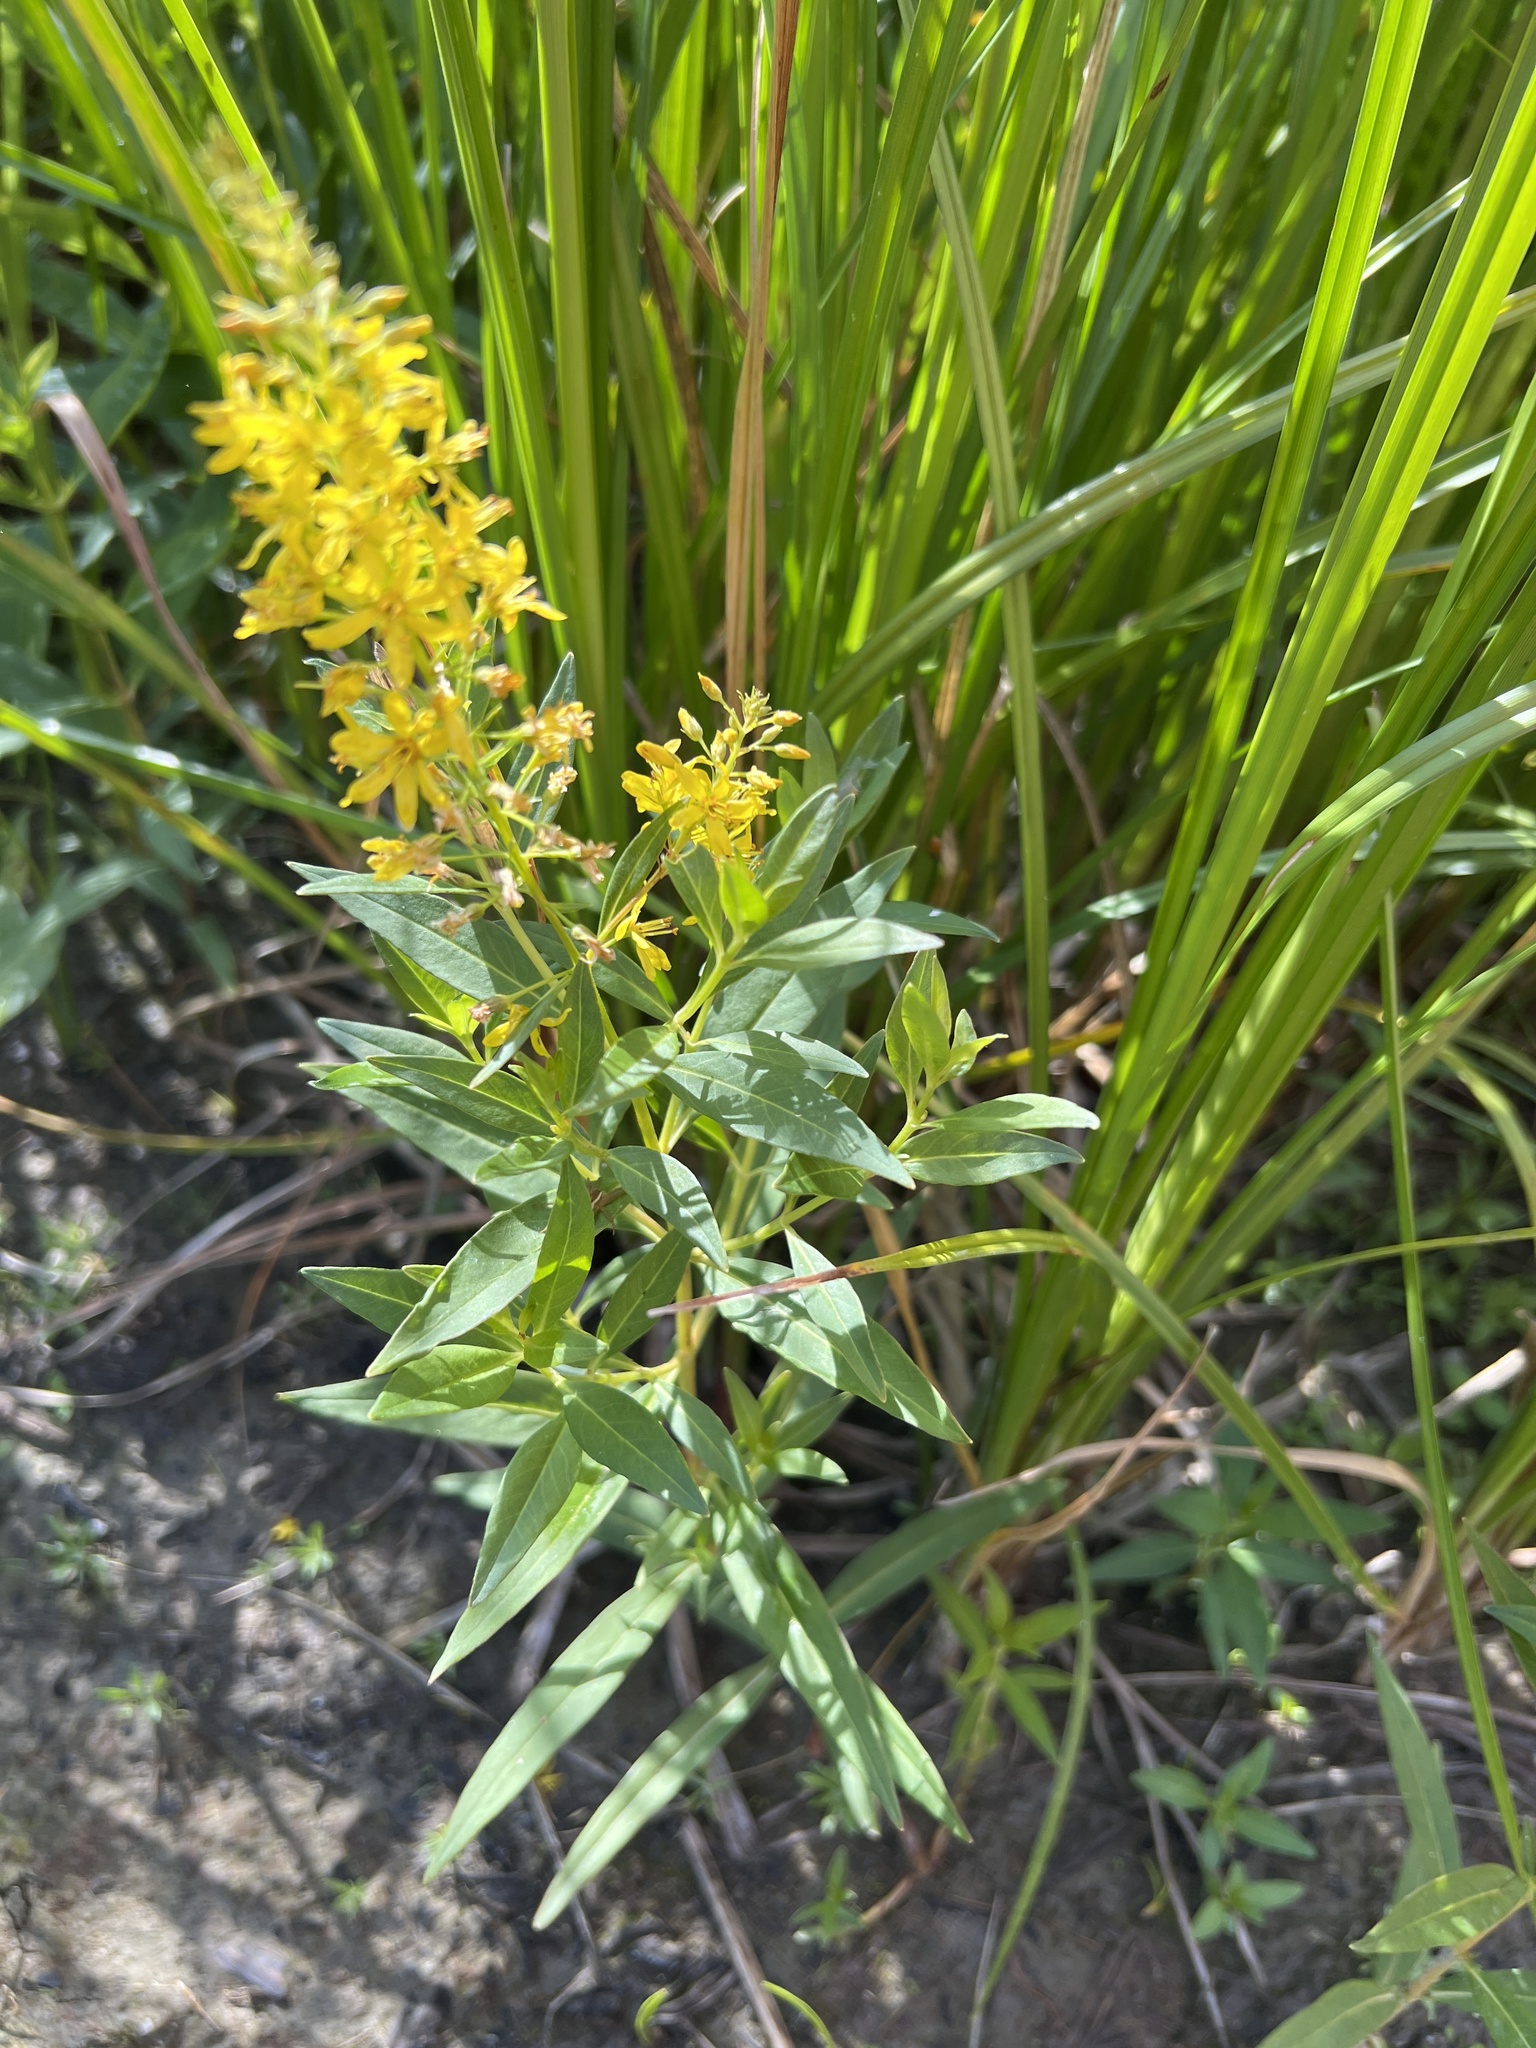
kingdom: Plantae
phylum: Tracheophyta
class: Magnoliopsida
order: Ericales
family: Primulaceae
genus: Lysimachia
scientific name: Lysimachia terrestris
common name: Lake loosestrife
